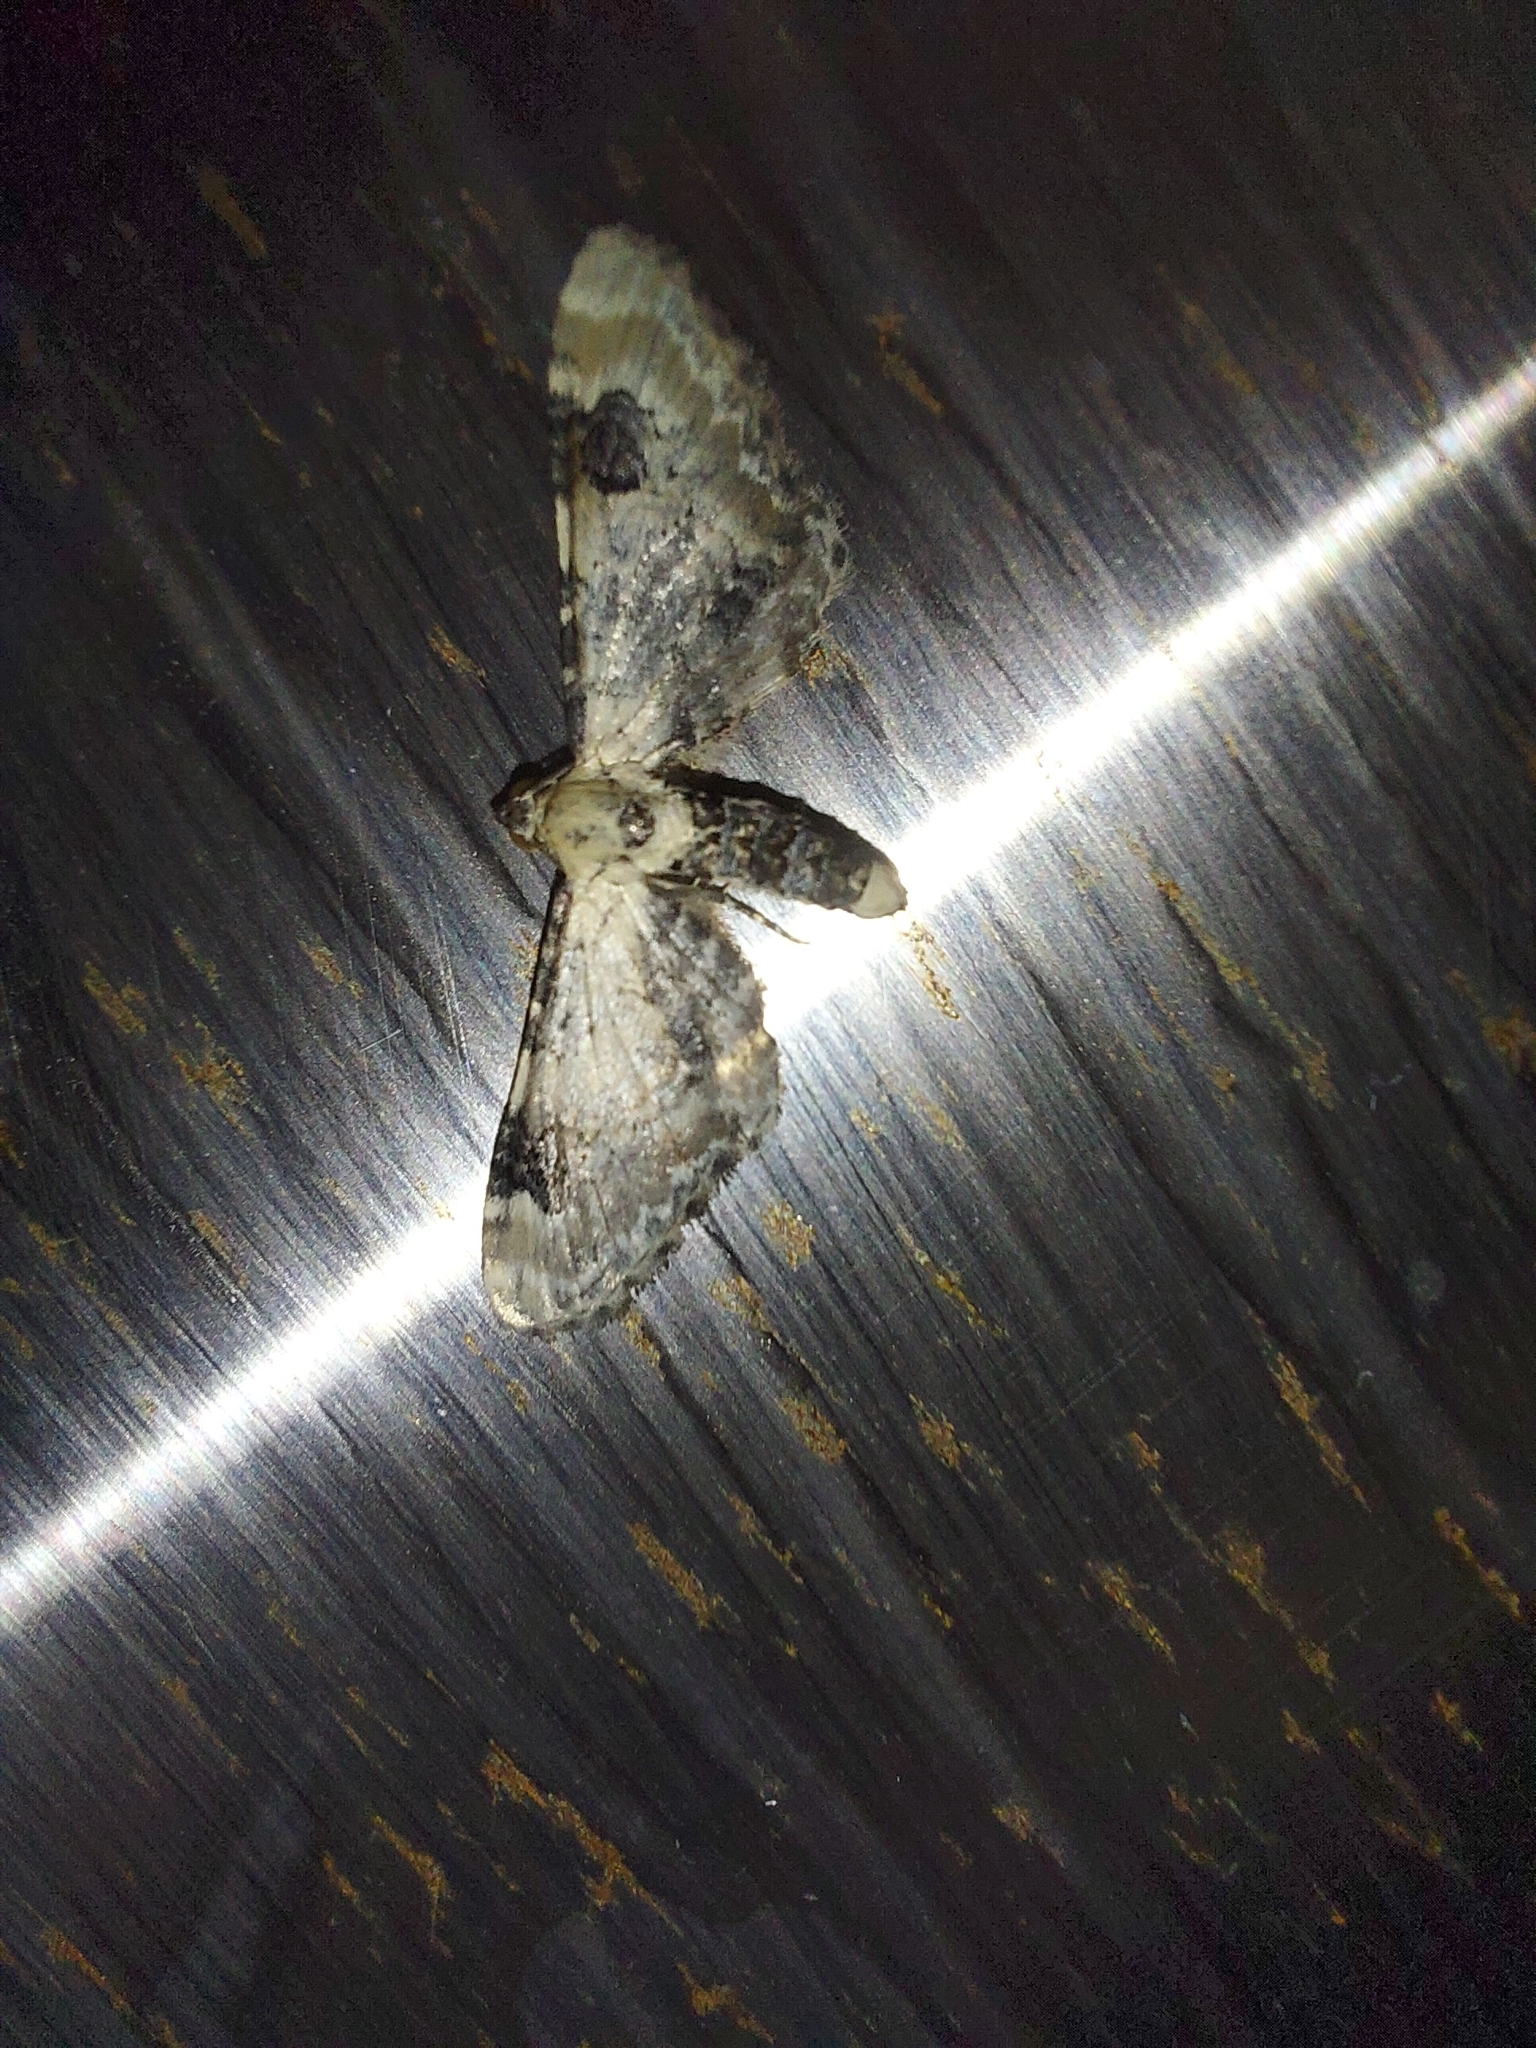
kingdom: Animalia
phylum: Arthropoda
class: Insecta
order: Lepidoptera
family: Geometridae
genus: Eupithecia
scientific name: Eupithecia centaureata
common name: Lime-speck pug
